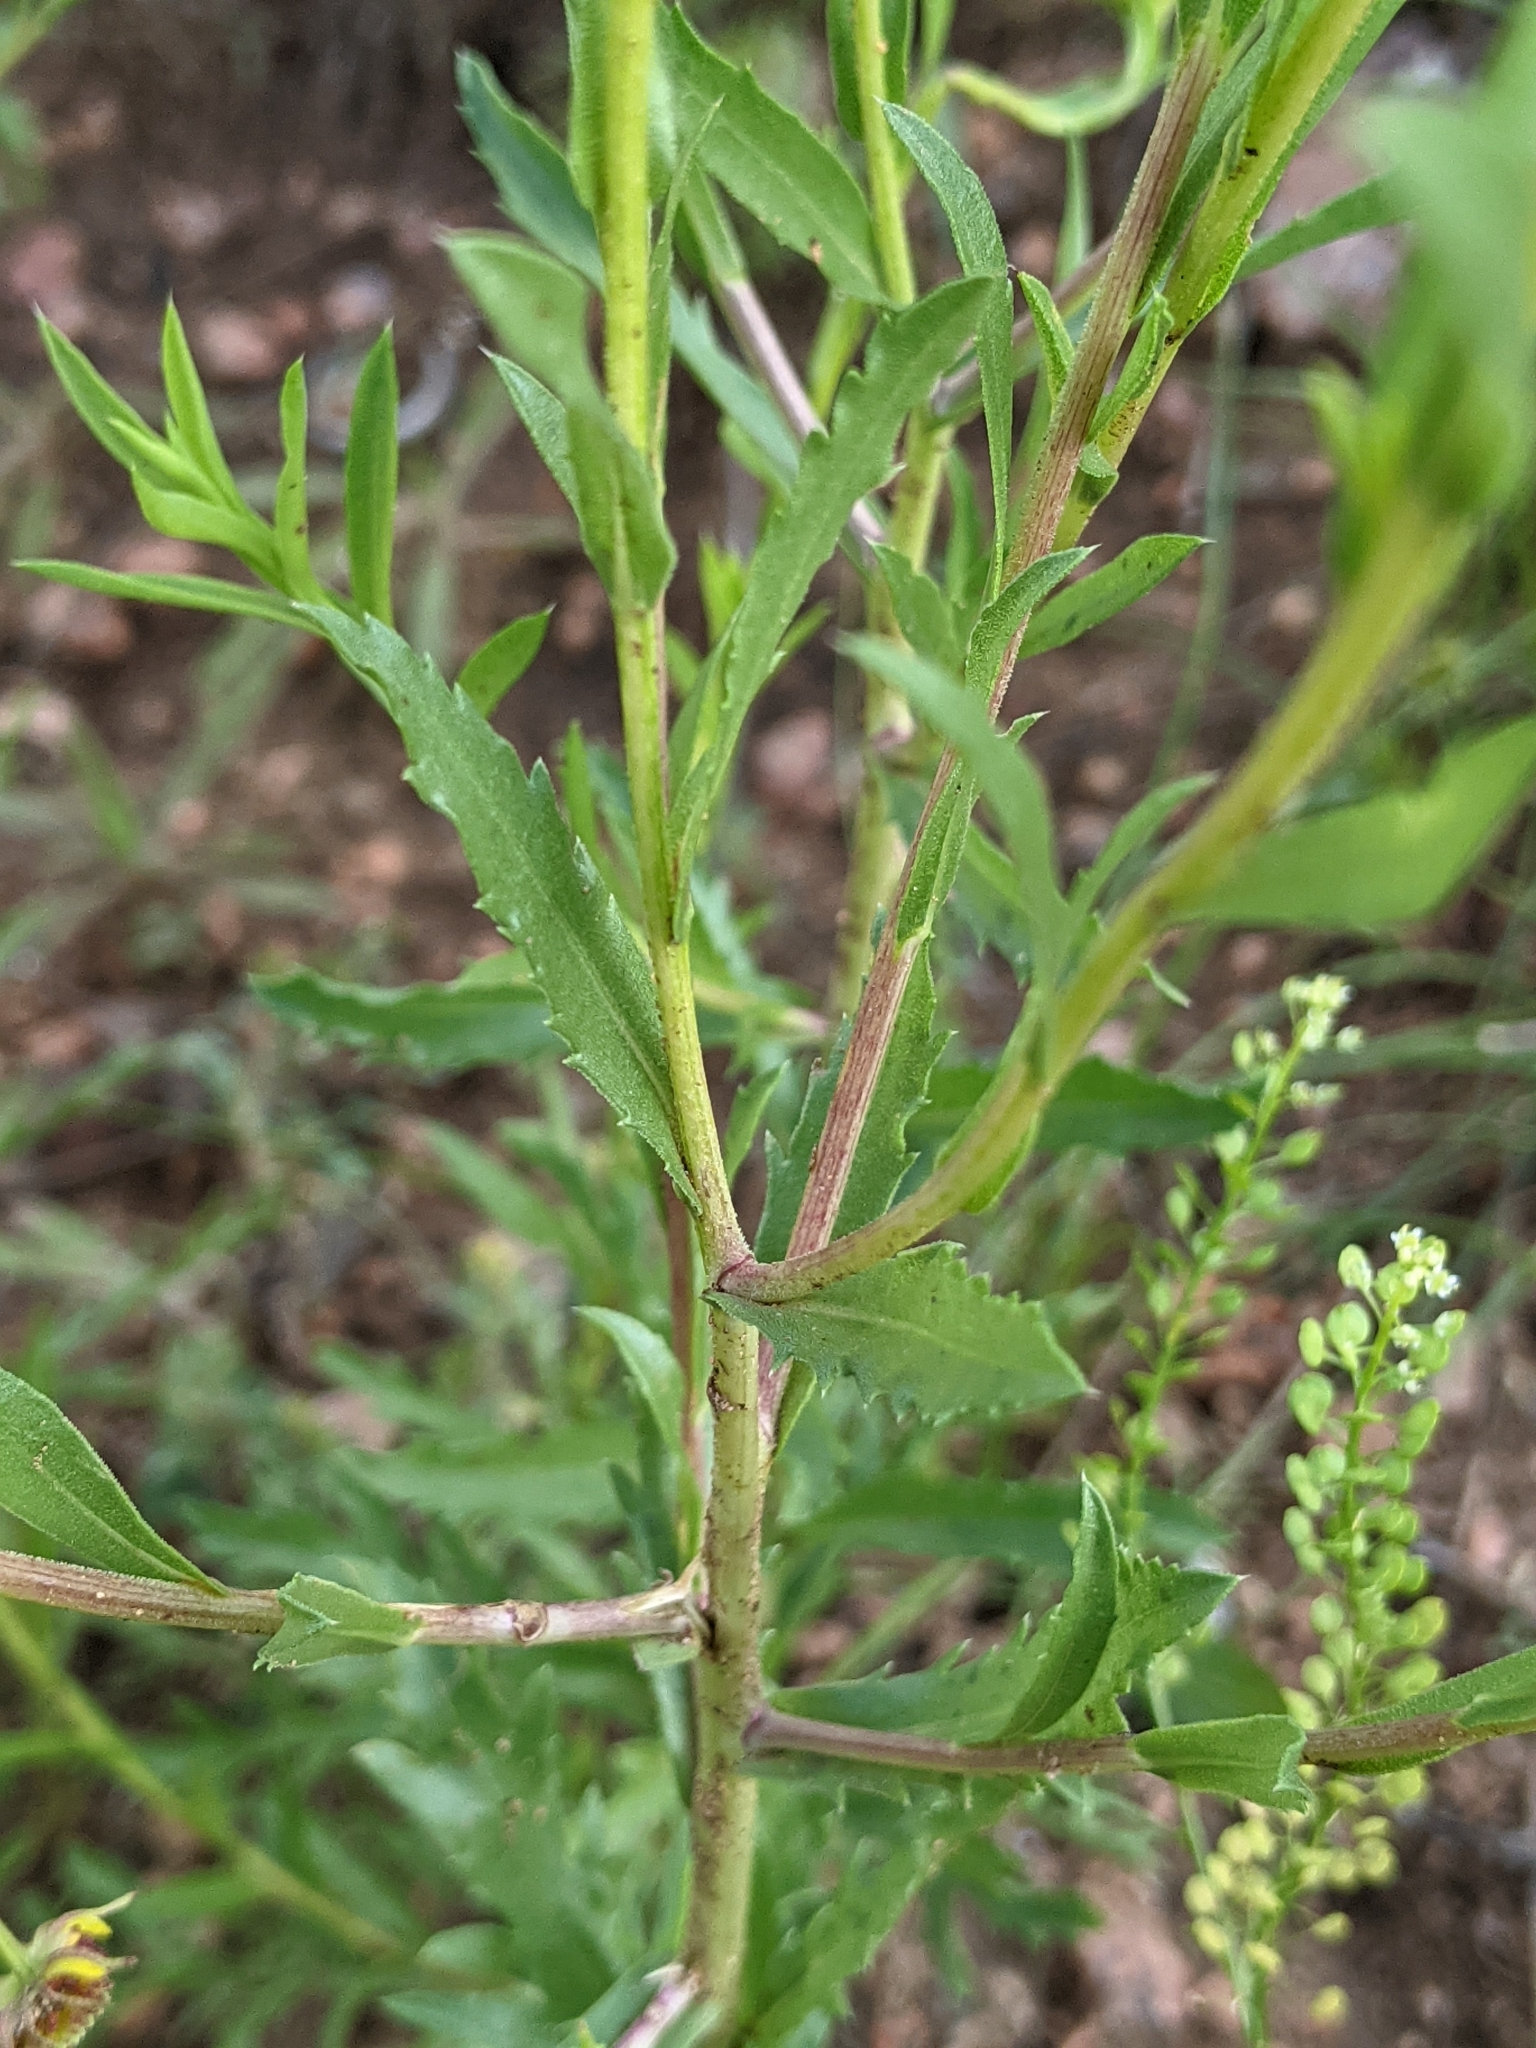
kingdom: Plantae
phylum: Tracheophyta
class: Magnoliopsida
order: Asterales
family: Asteraceae
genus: Xanthisma
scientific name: Xanthisma texanum
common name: Texas sleepy daisy
